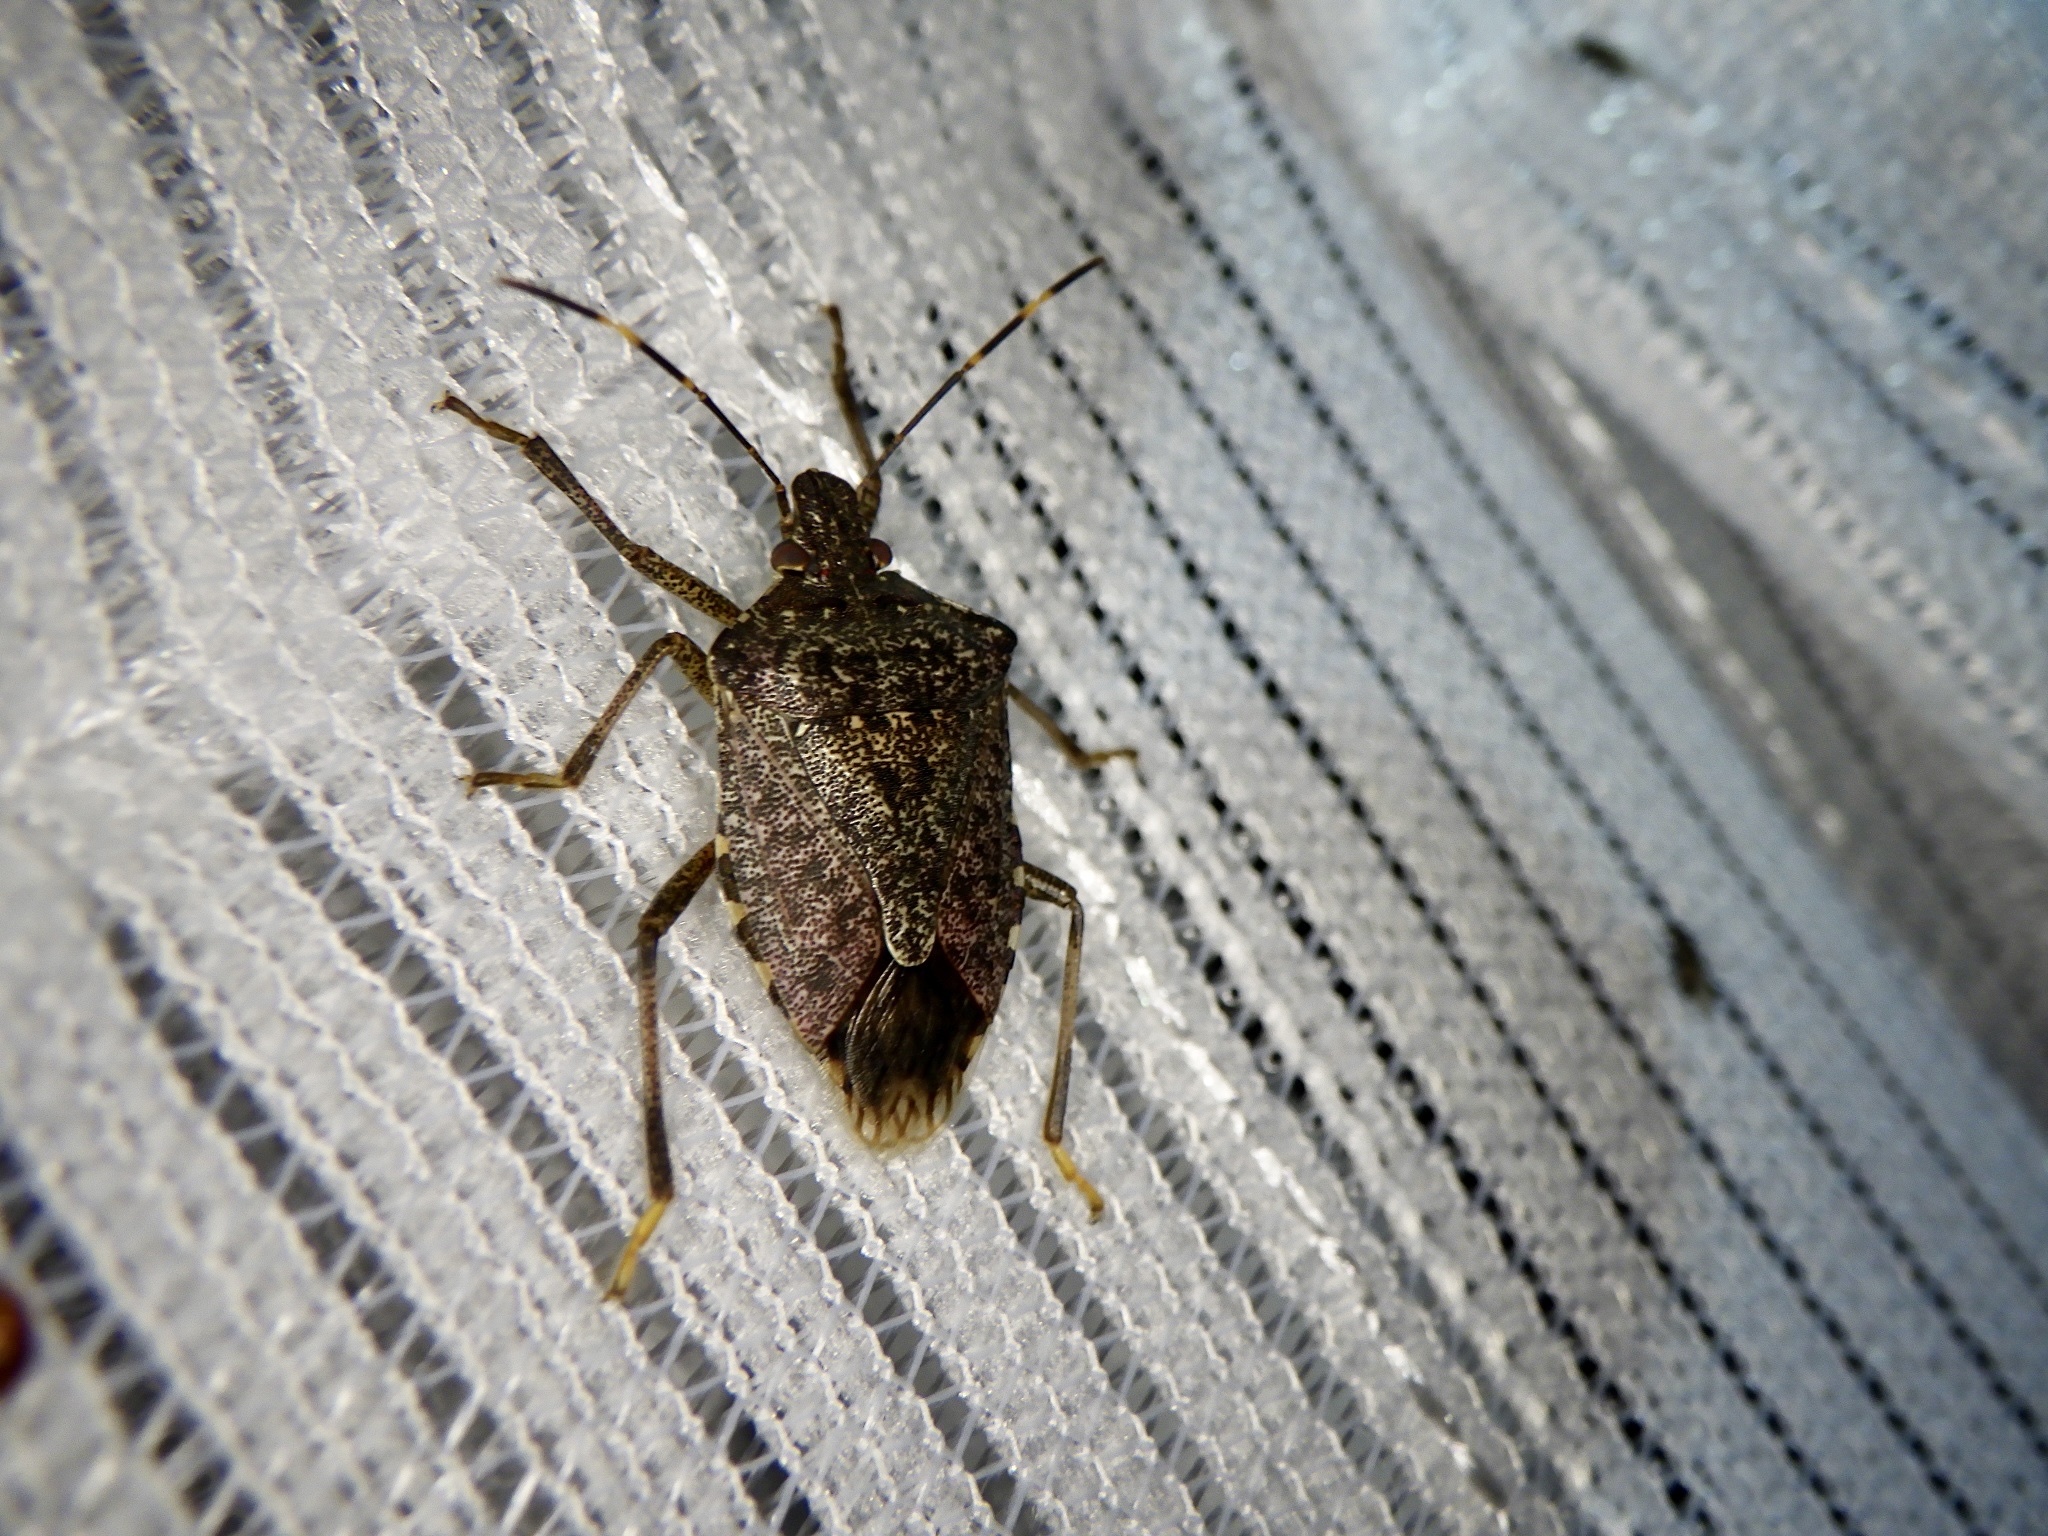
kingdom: Animalia
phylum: Arthropoda
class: Insecta
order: Hemiptera
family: Pentatomidae
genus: Halyomorpha
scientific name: Halyomorpha halys
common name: Brown marmorated stink bug
